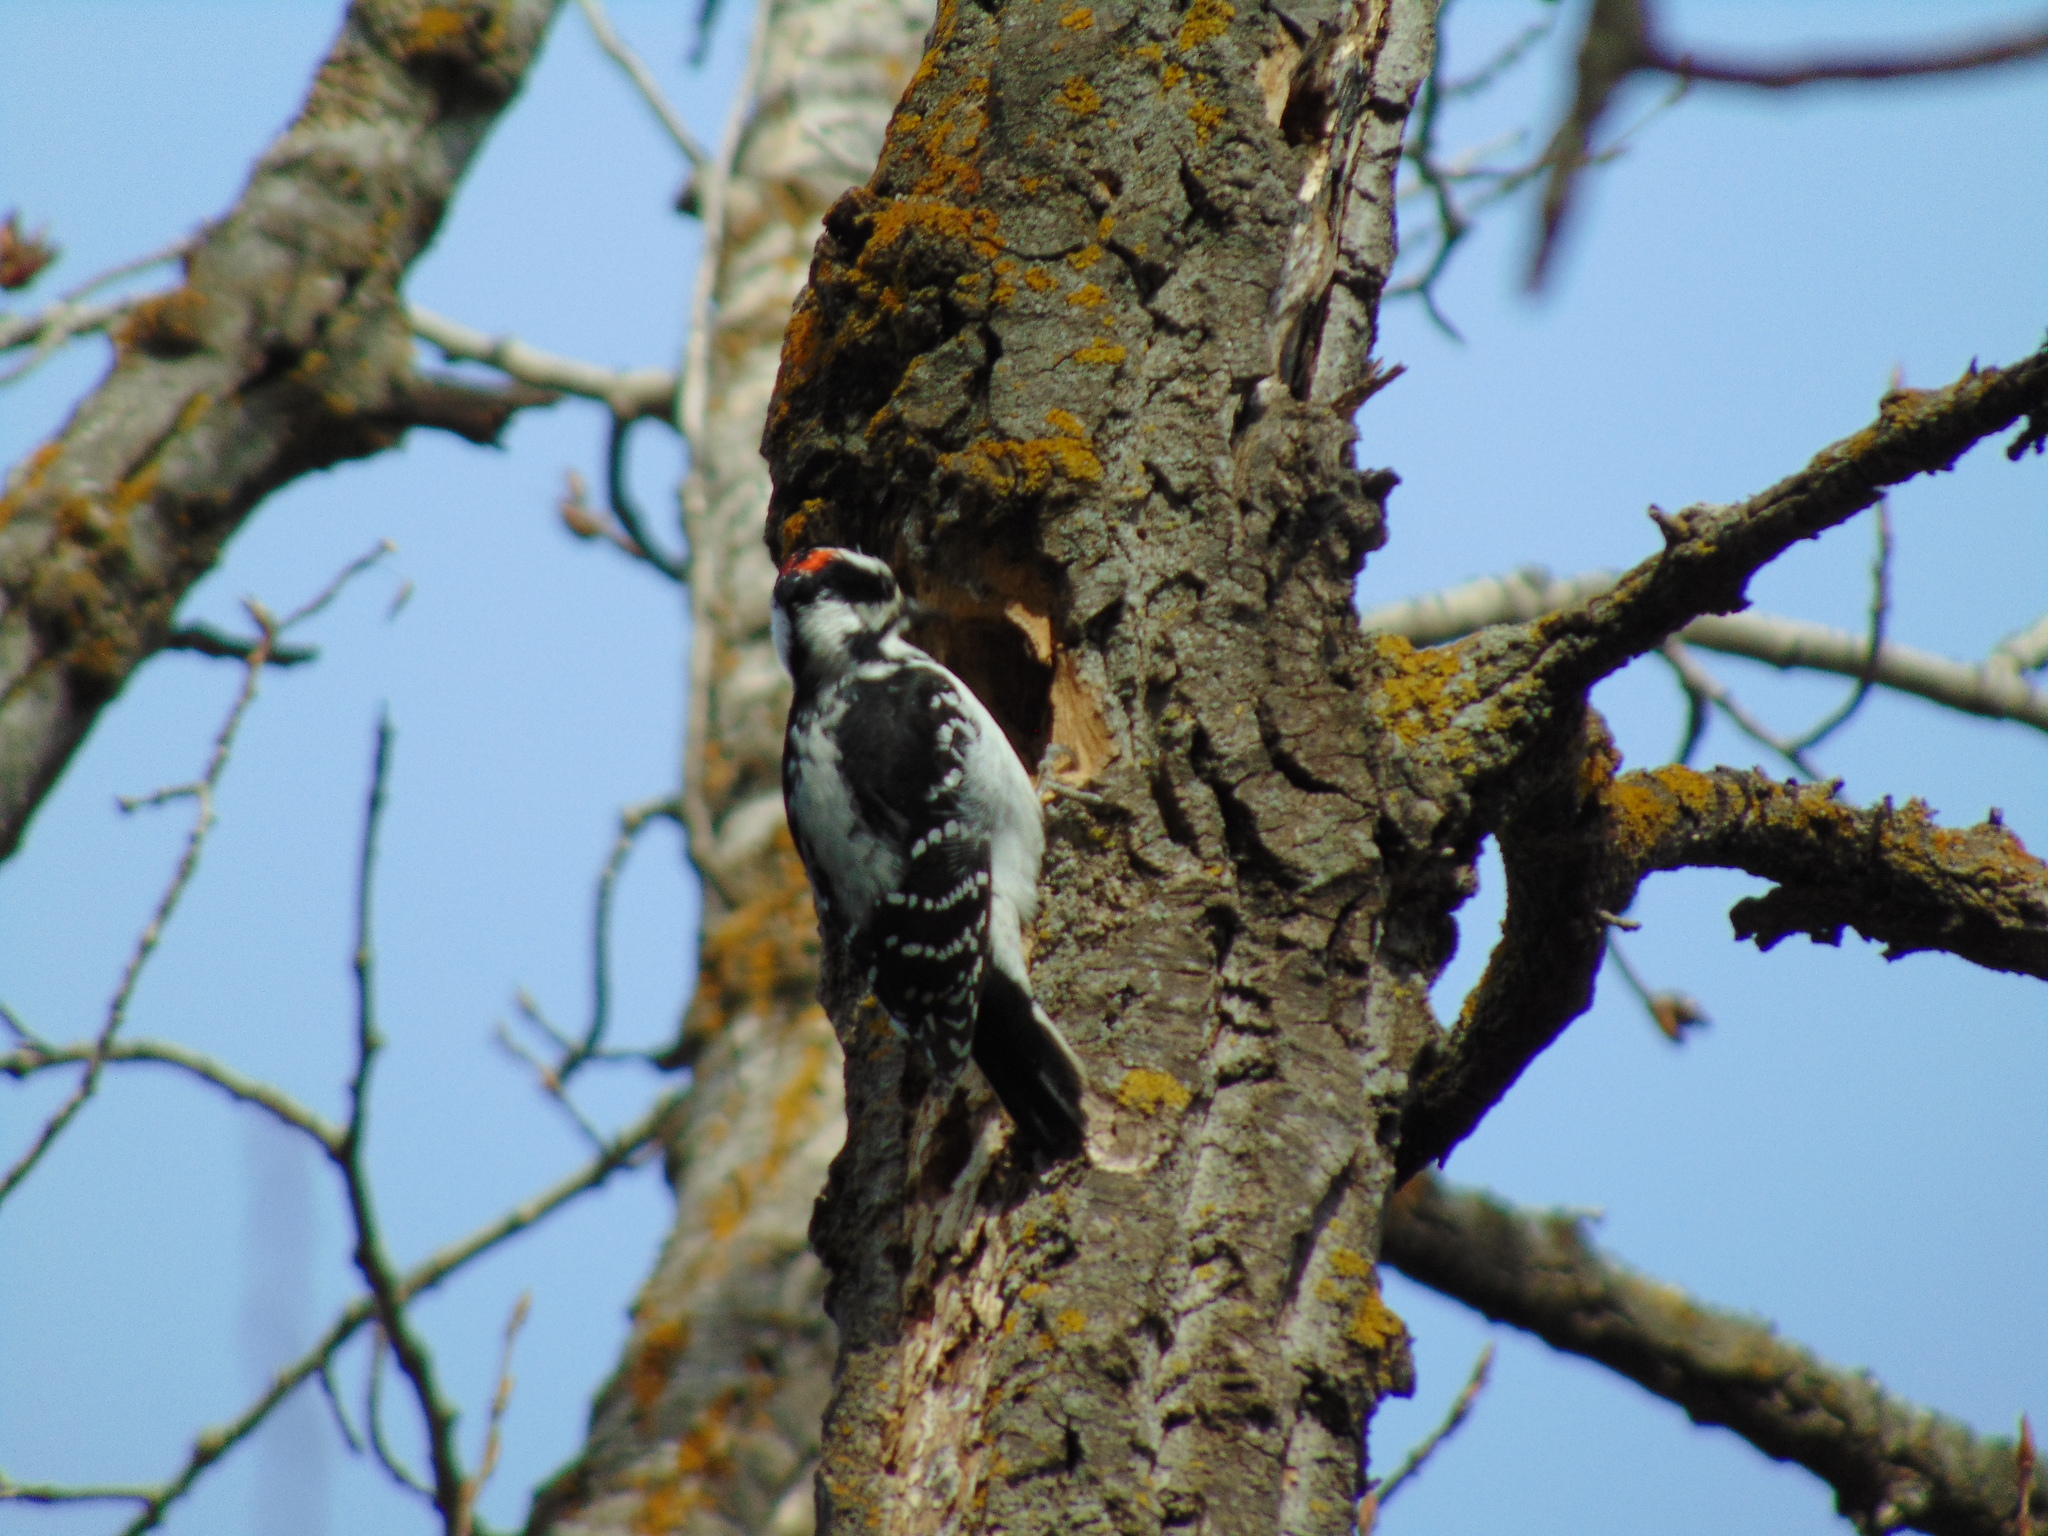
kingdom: Animalia
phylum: Chordata
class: Aves
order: Piciformes
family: Picidae
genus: Leuconotopicus
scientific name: Leuconotopicus villosus
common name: Hairy woodpecker
